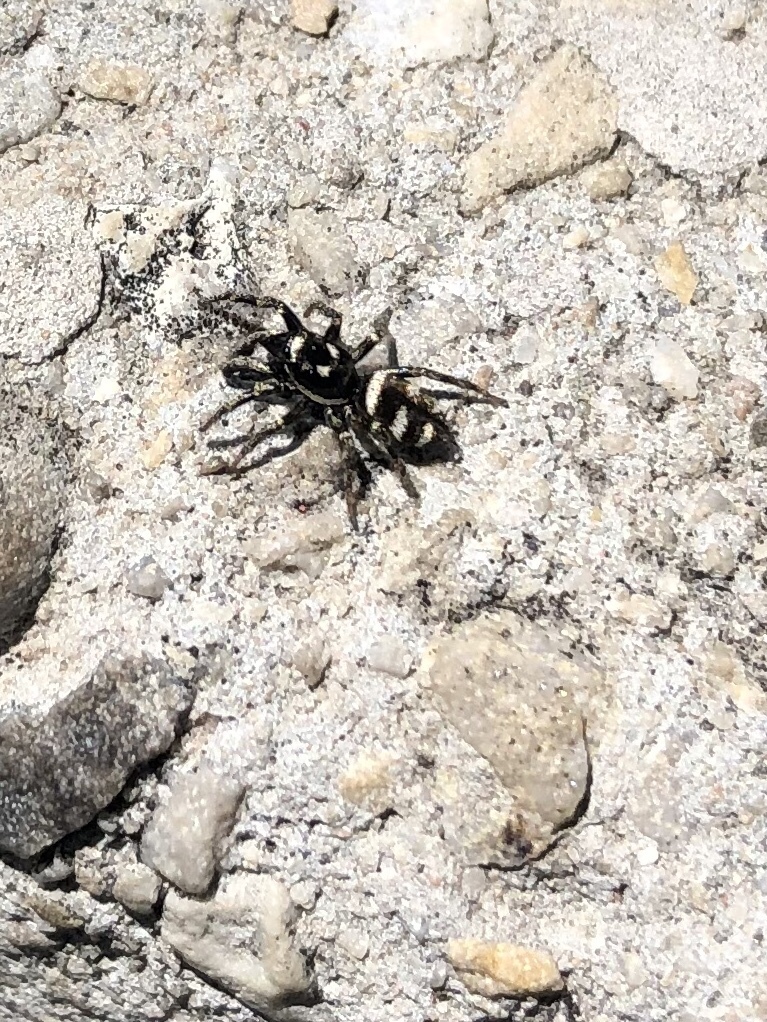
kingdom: Animalia
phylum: Arthropoda
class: Arachnida
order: Araneae
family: Salticidae
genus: Salticus
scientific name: Salticus scenicus
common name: Zebra jumper
